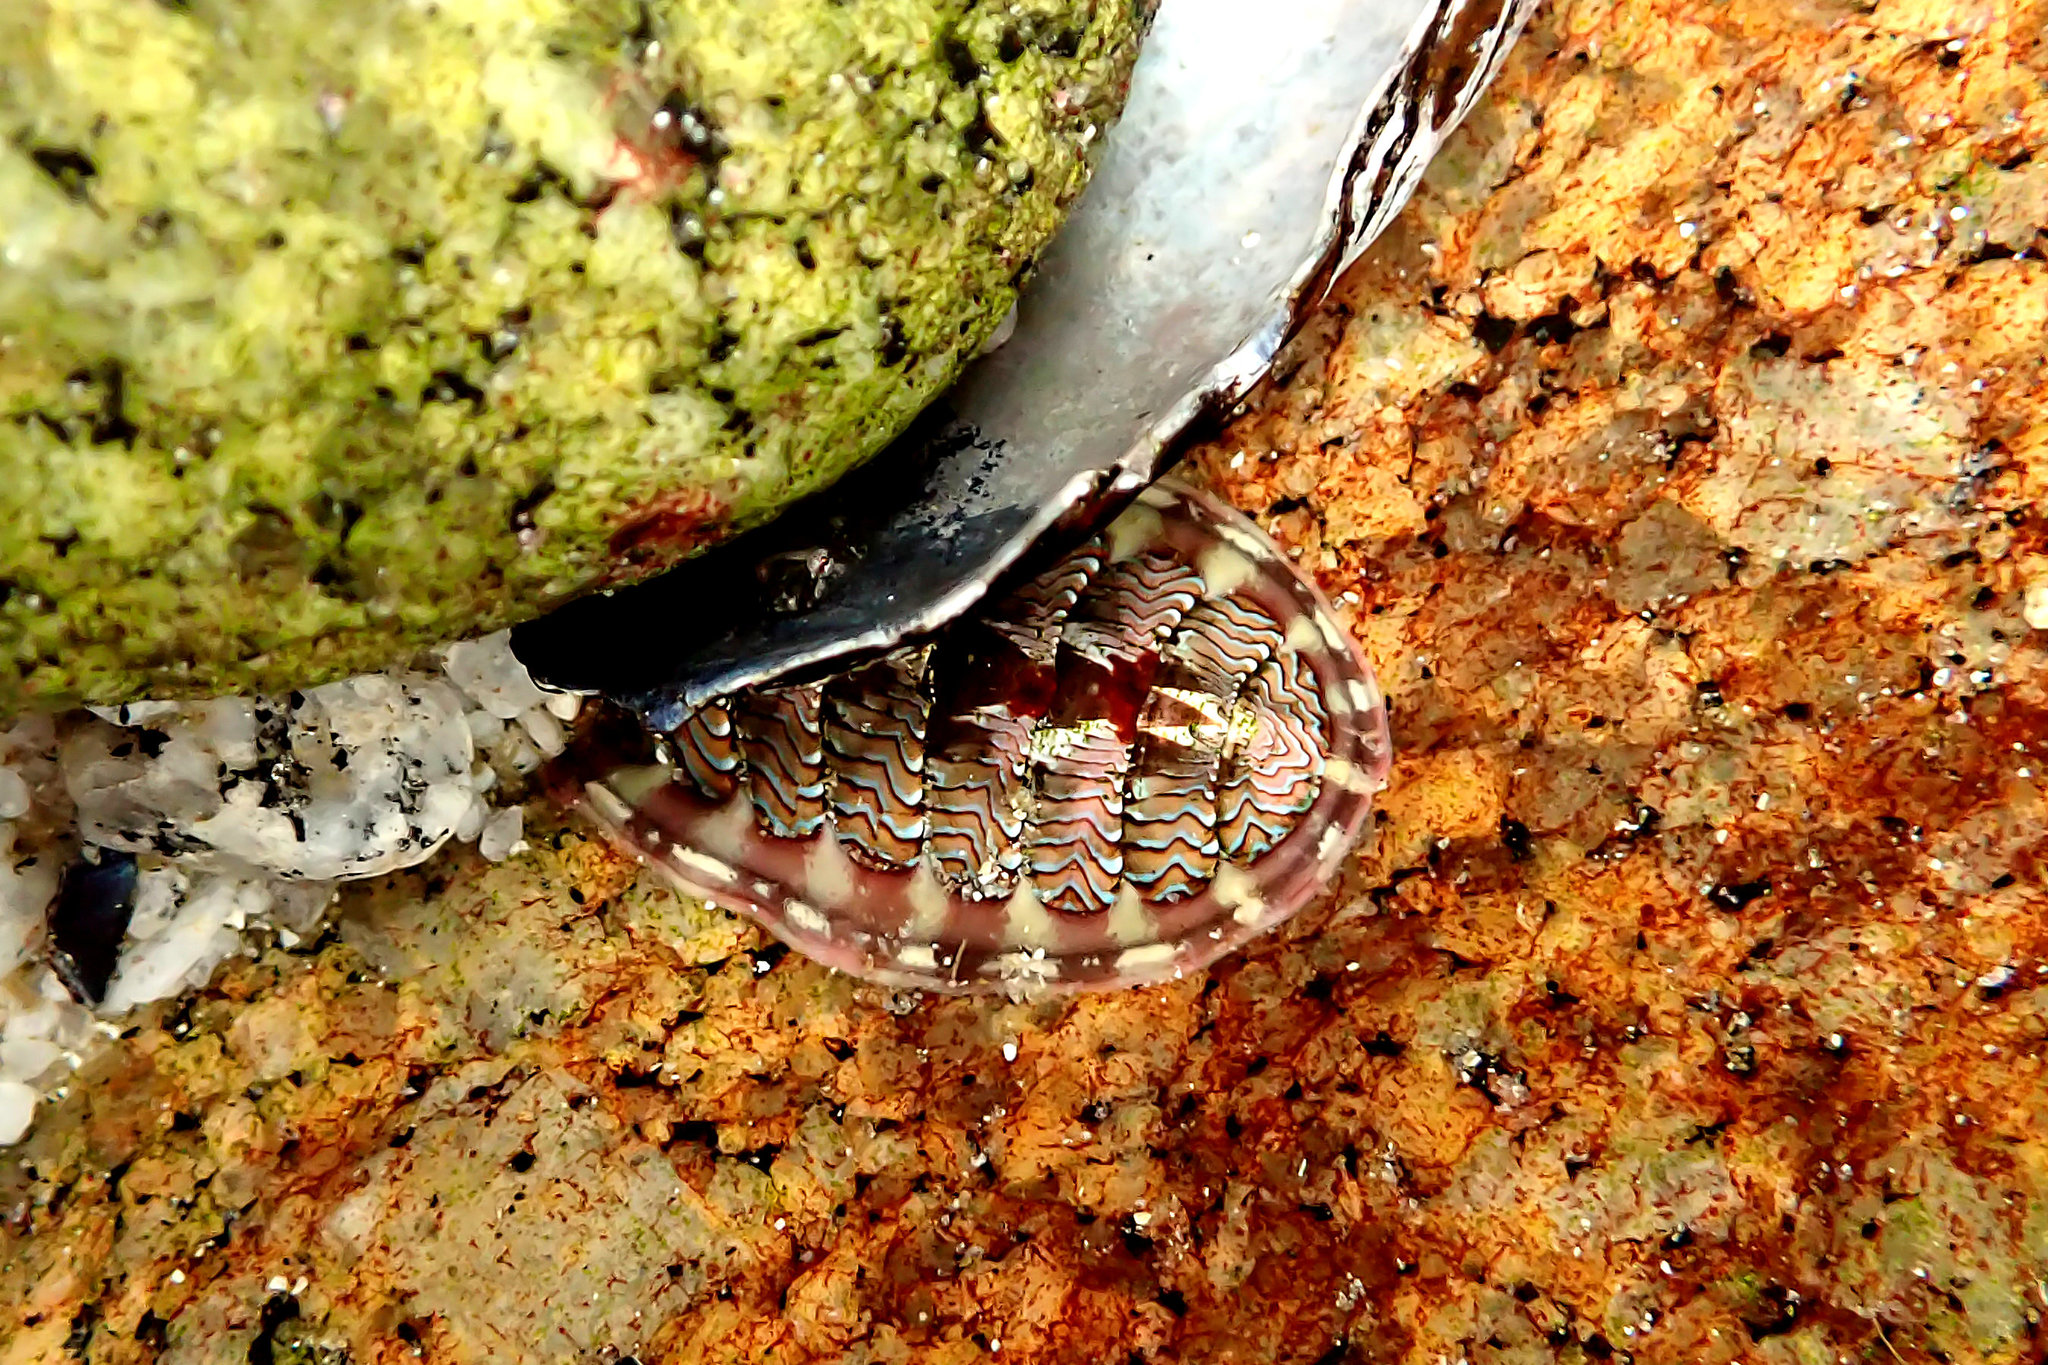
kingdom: Animalia
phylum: Mollusca
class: Polyplacophora
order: Chitonida
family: Tonicellidae
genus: Tonicella
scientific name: Tonicella lokii
